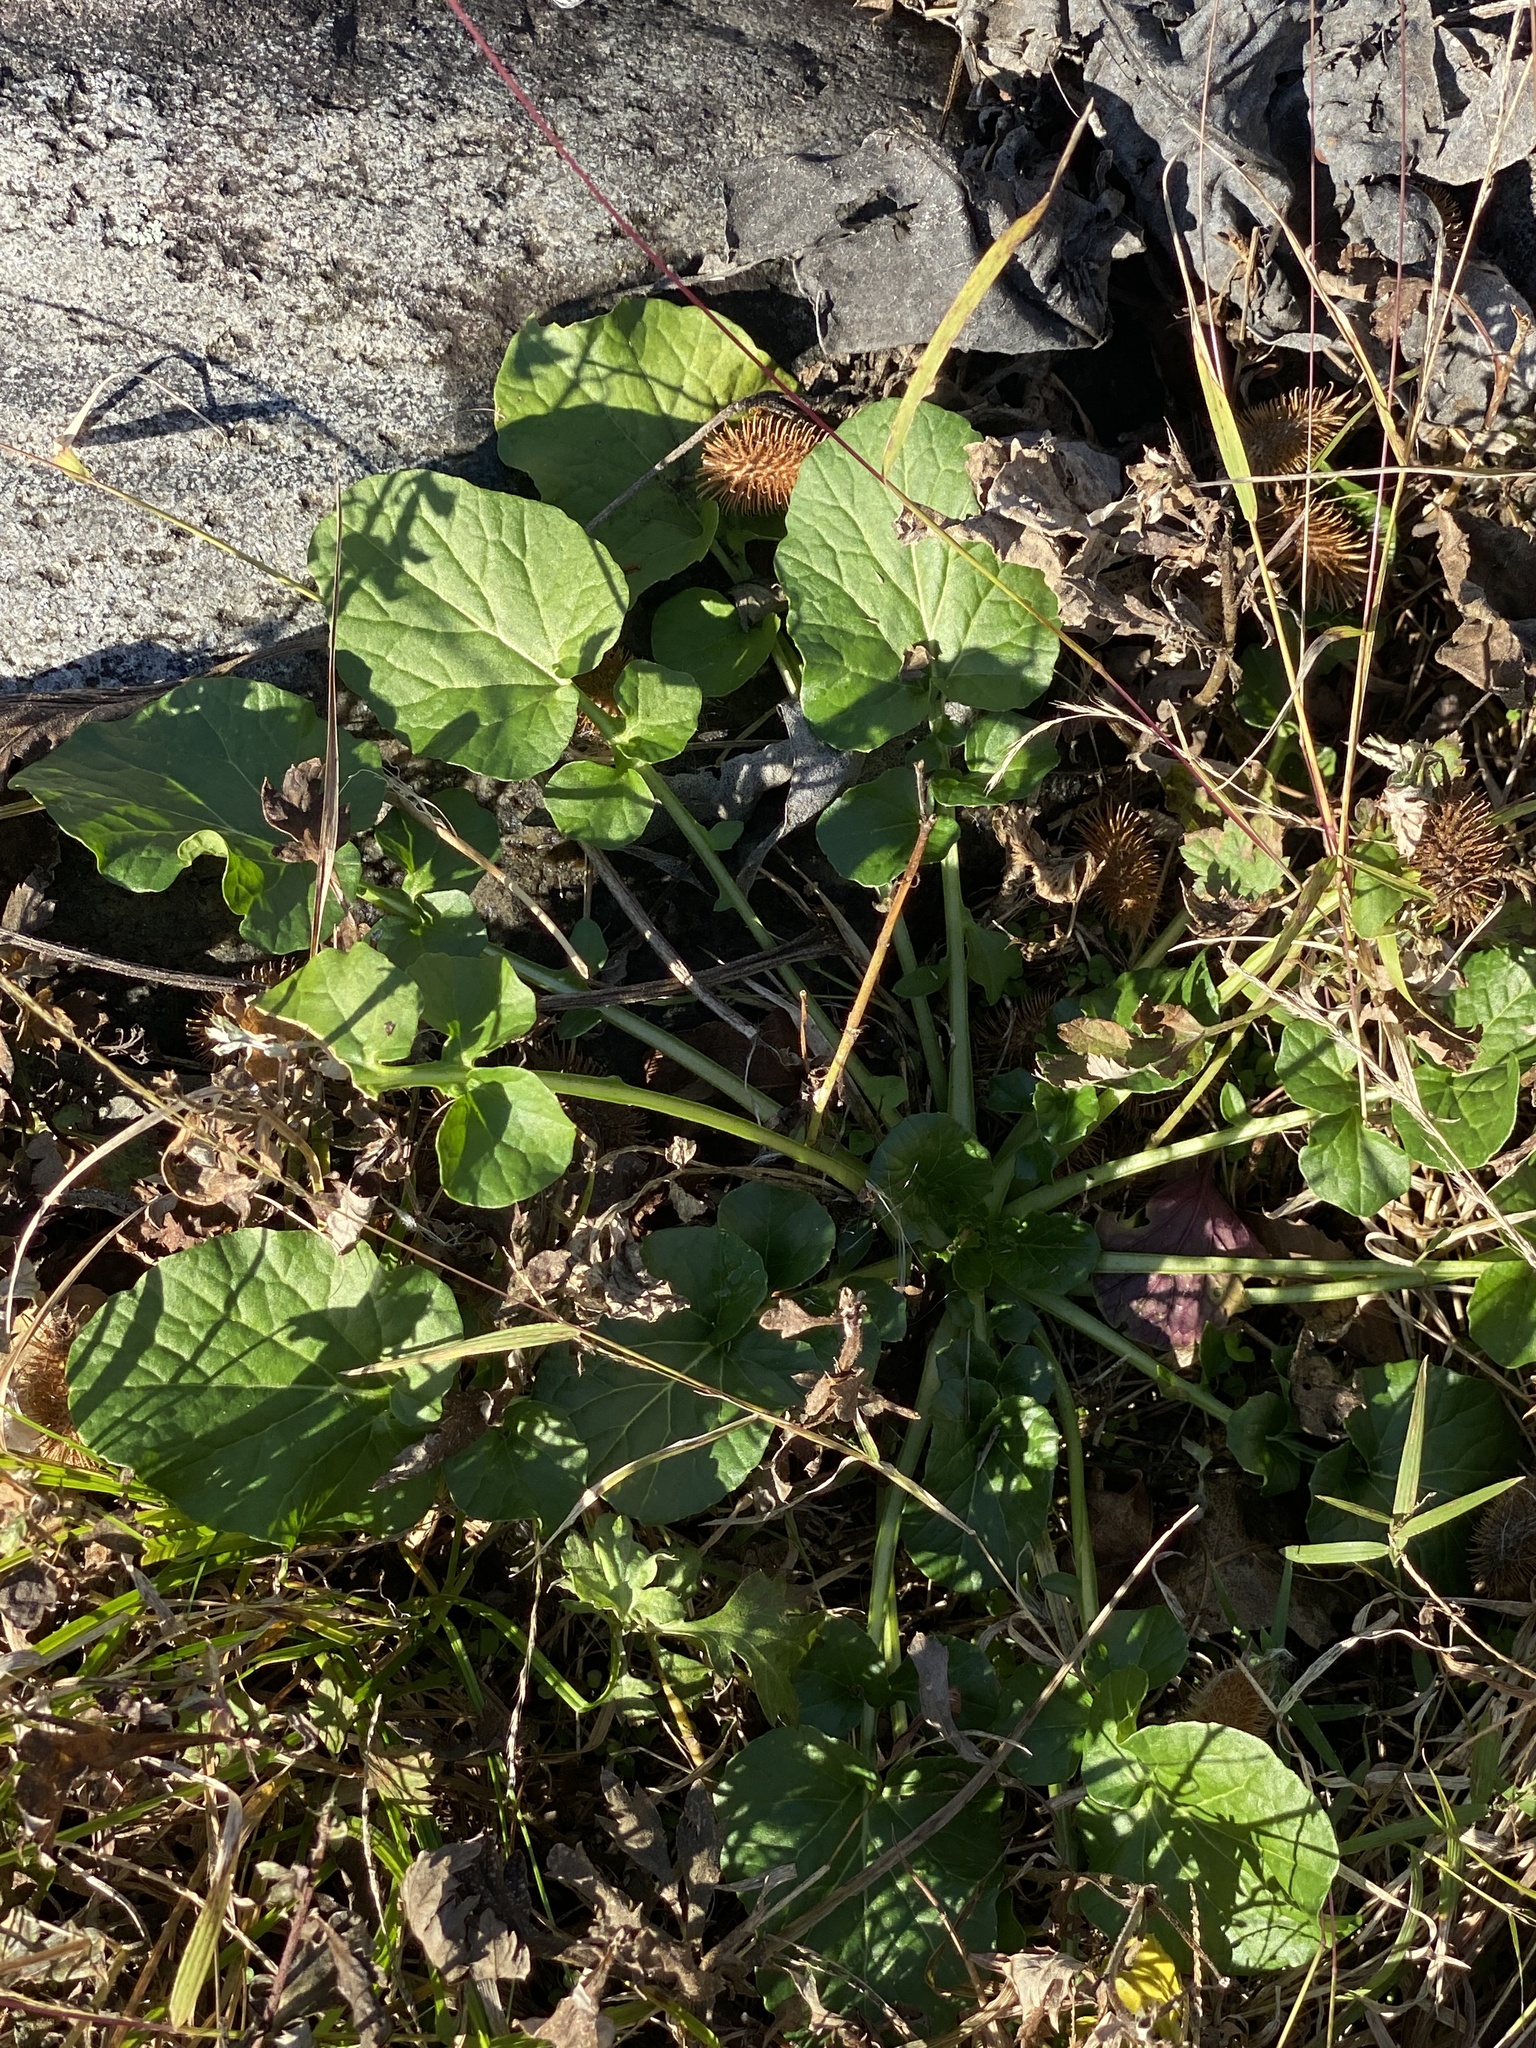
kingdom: Plantae
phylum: Tracheophyta
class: Magnoliopsida
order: Brassicales
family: Brassicaceae
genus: Barbarea
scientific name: Barbarea vulgaris
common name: Cressy-greens
